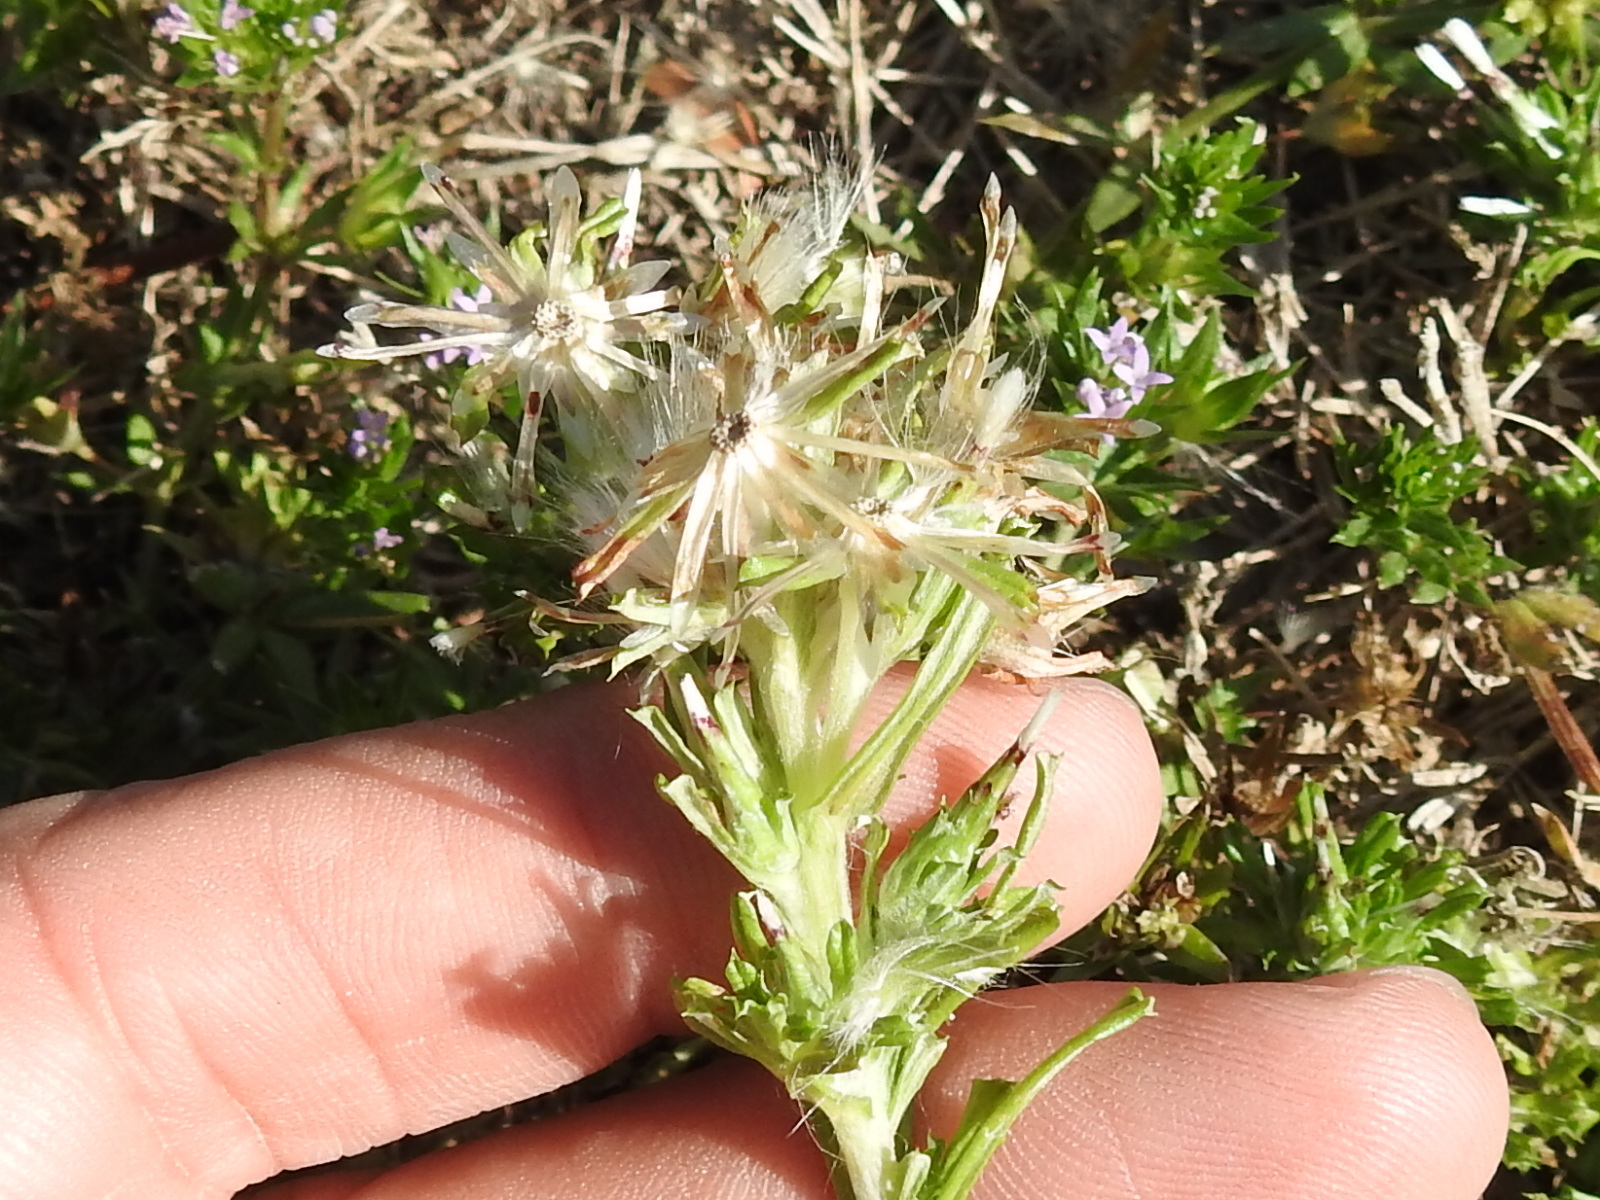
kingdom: Plantae
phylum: Tracheophyta
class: Magnoliopsida
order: Asterales
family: Asteraceae
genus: Facelis
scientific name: Facelis retusa
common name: Annual trampweed
